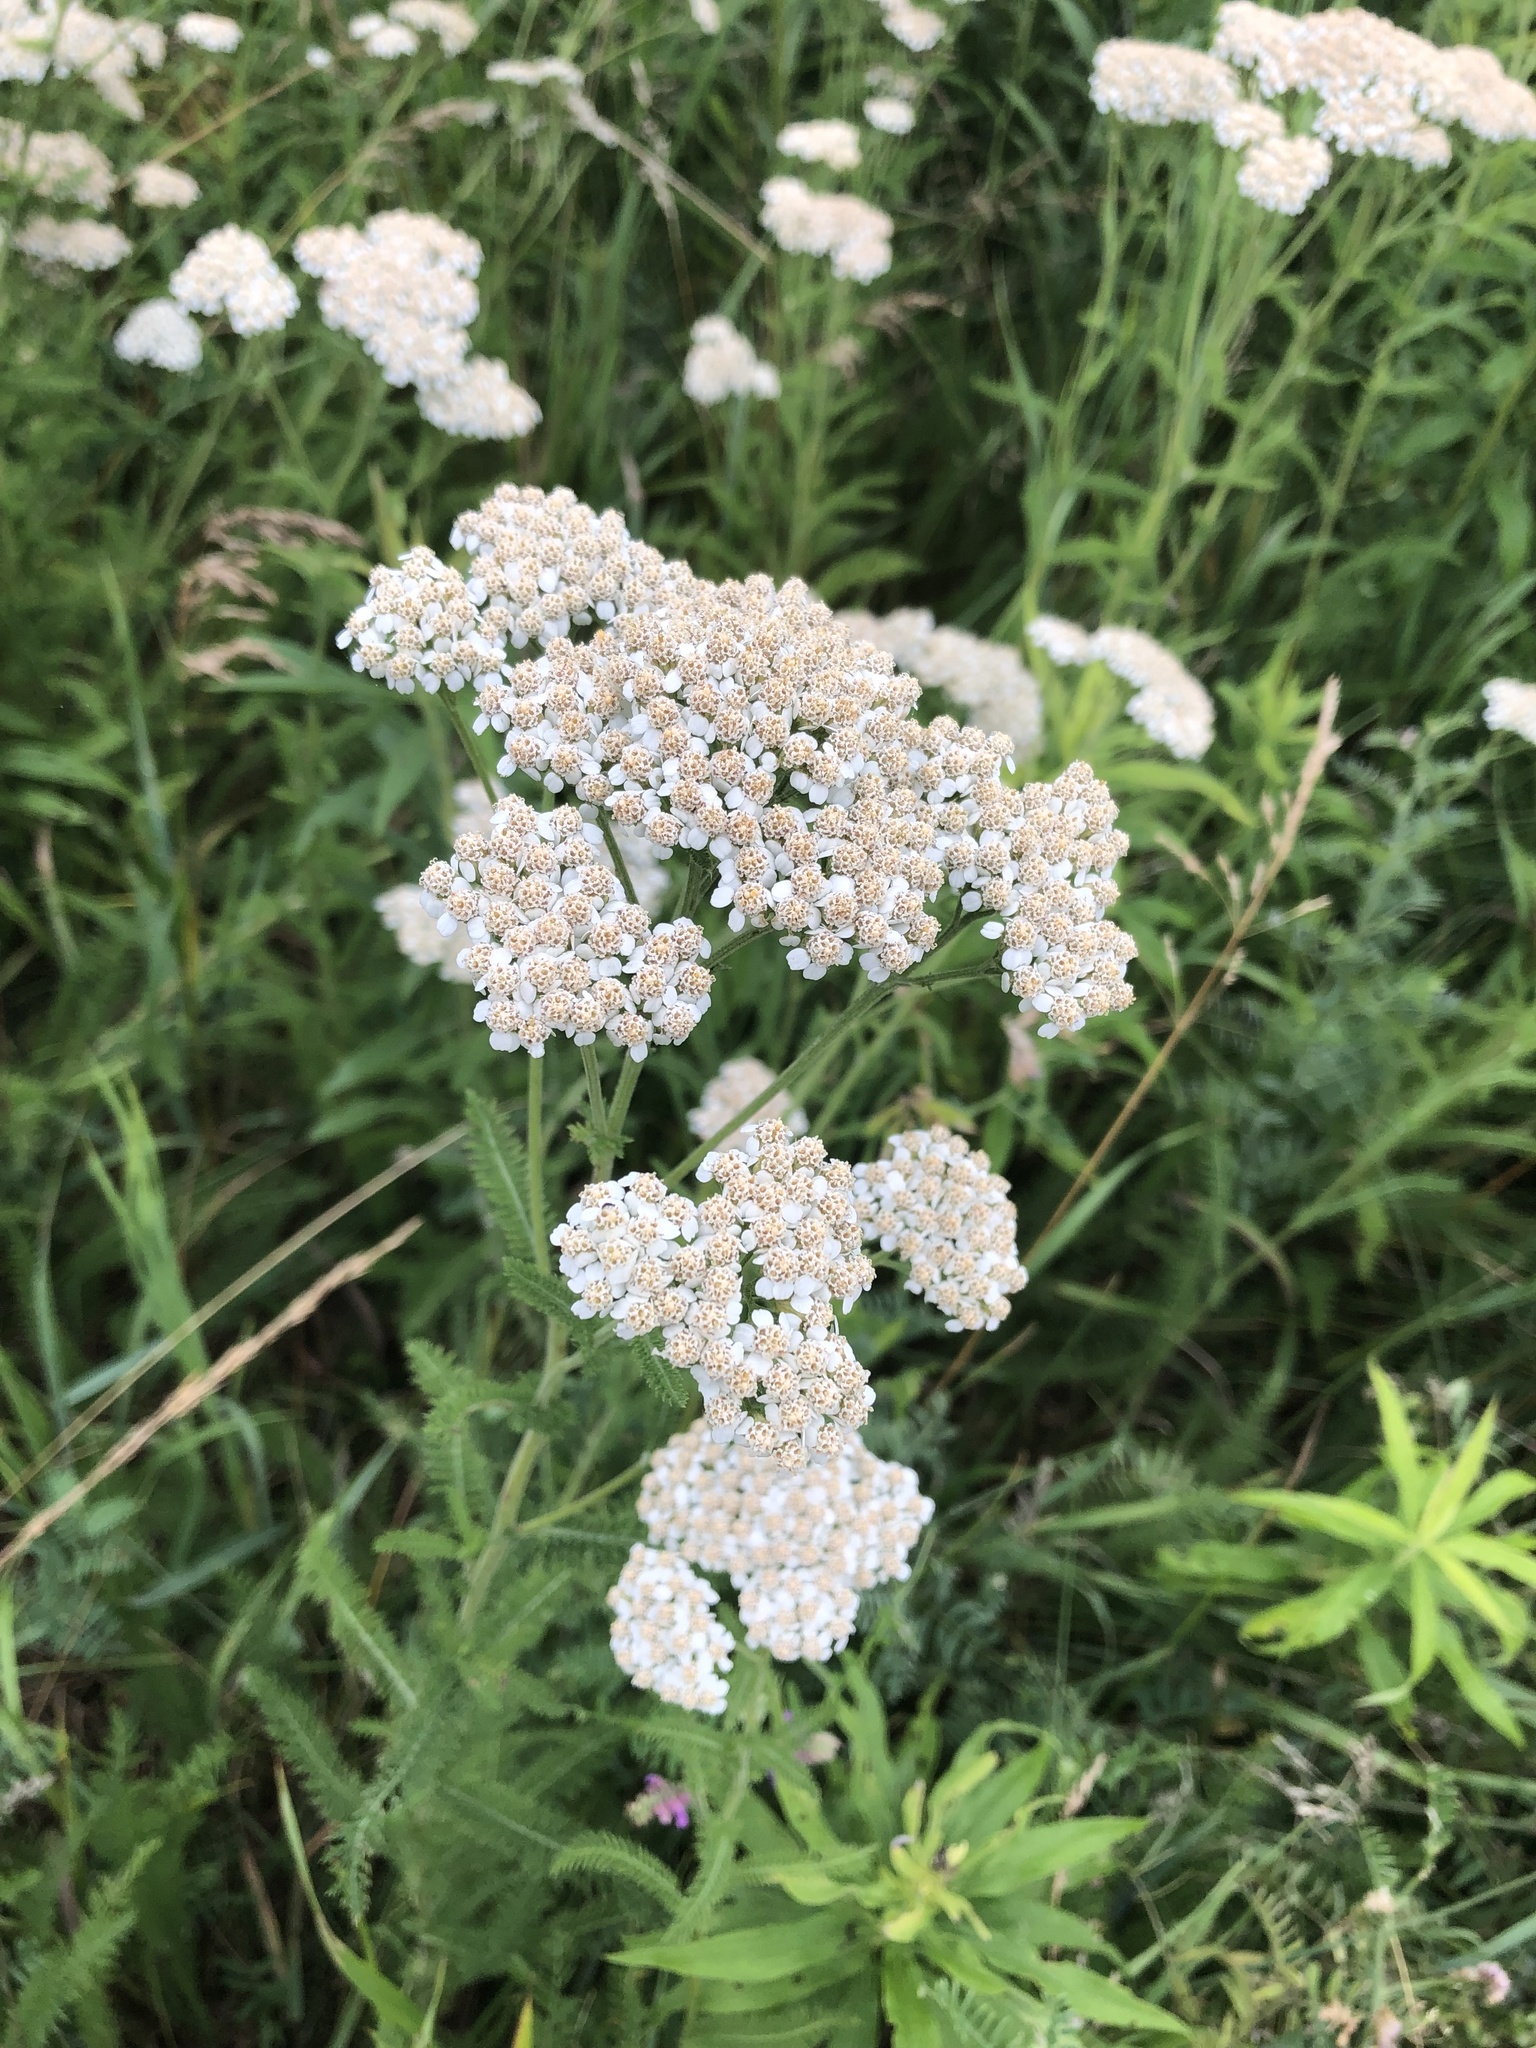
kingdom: Plantae
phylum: Tracheophyta
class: Magnoliopsida
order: Asterales
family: Asteraceae
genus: Achillea
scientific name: Achillea millefolium
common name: Yarrow
